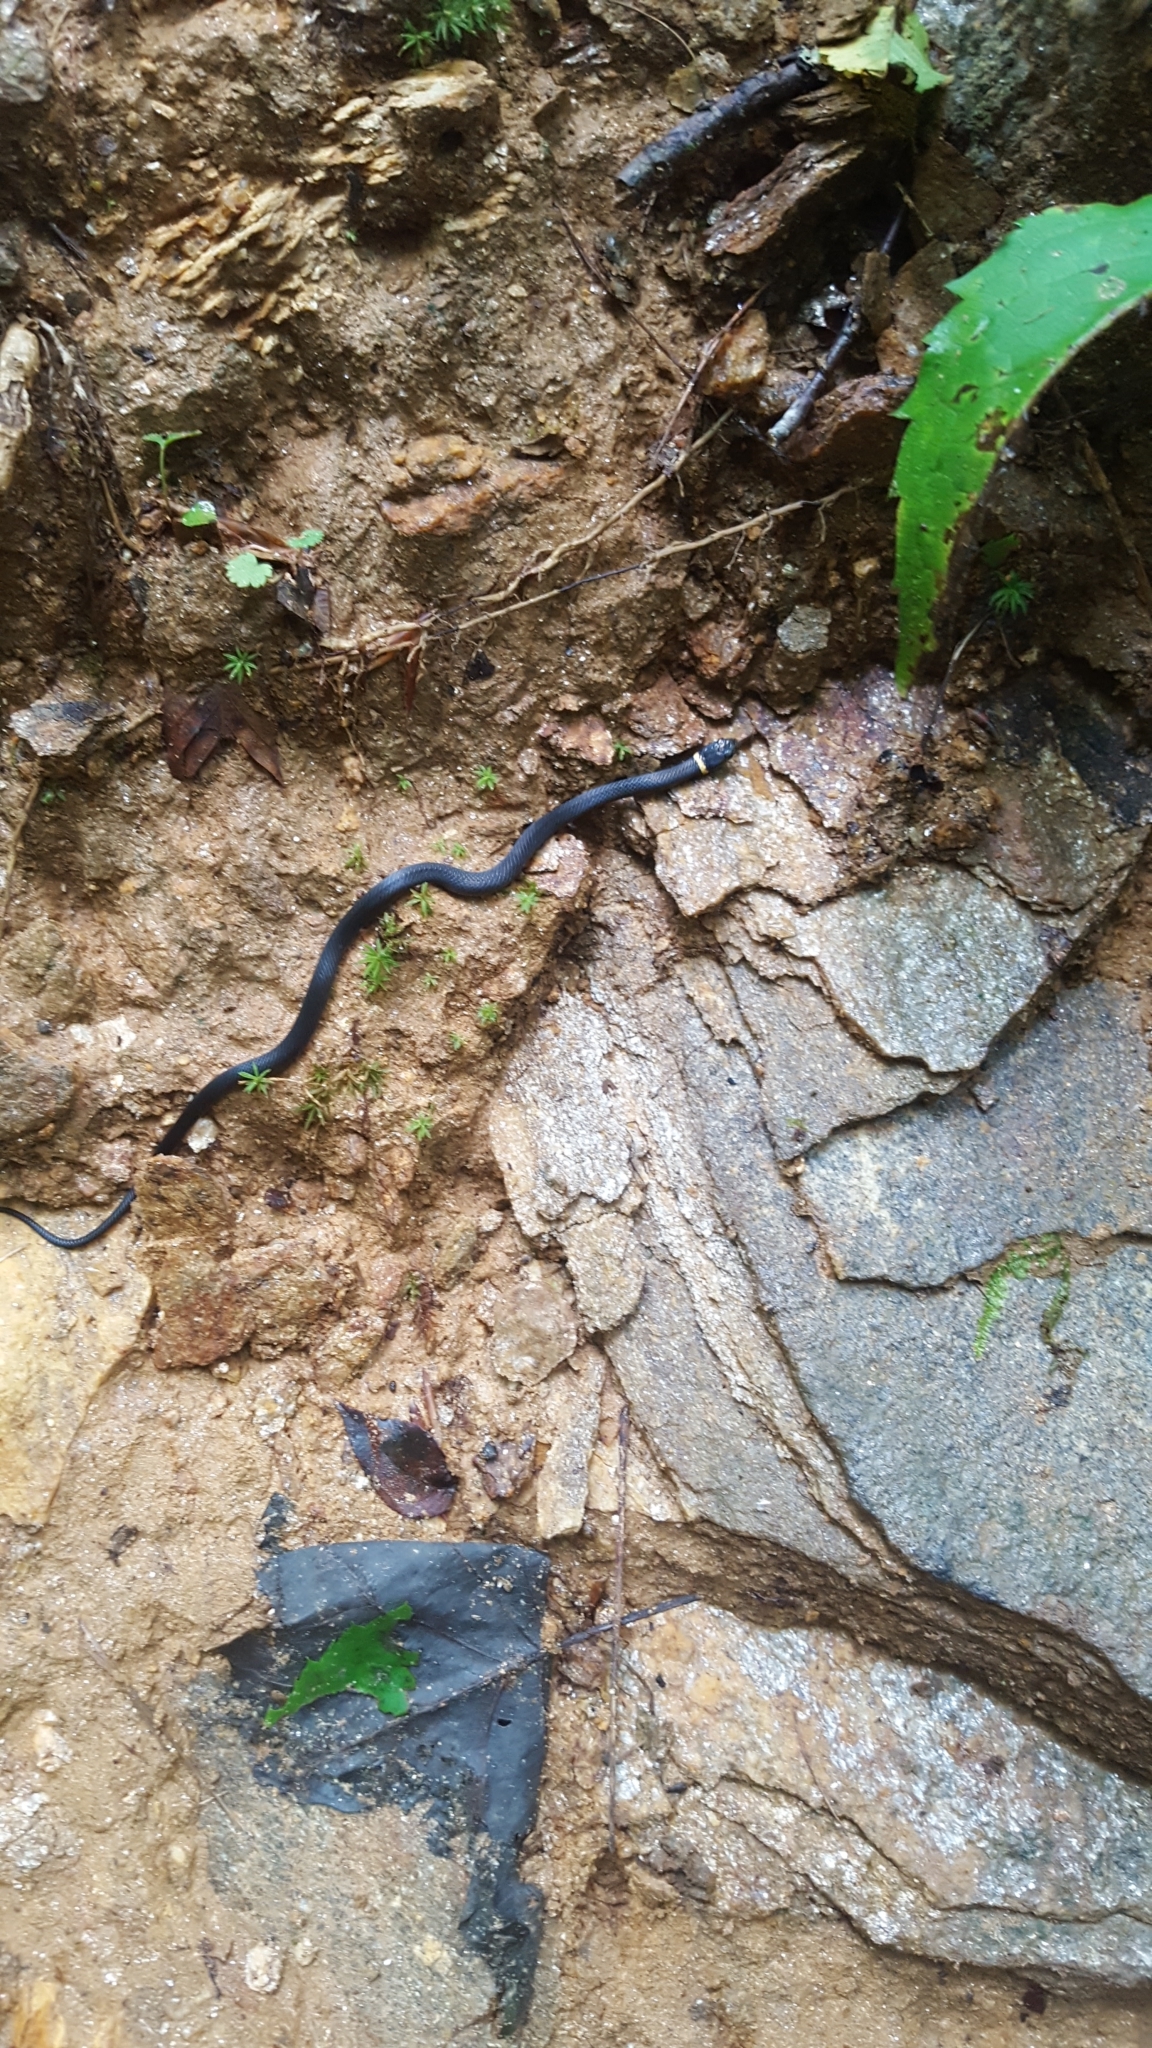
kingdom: Animalia
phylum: Chordata
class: Squamata
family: Colubridae
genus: Diadophis
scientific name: Diadophis punctatus
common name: Ringneck snake
